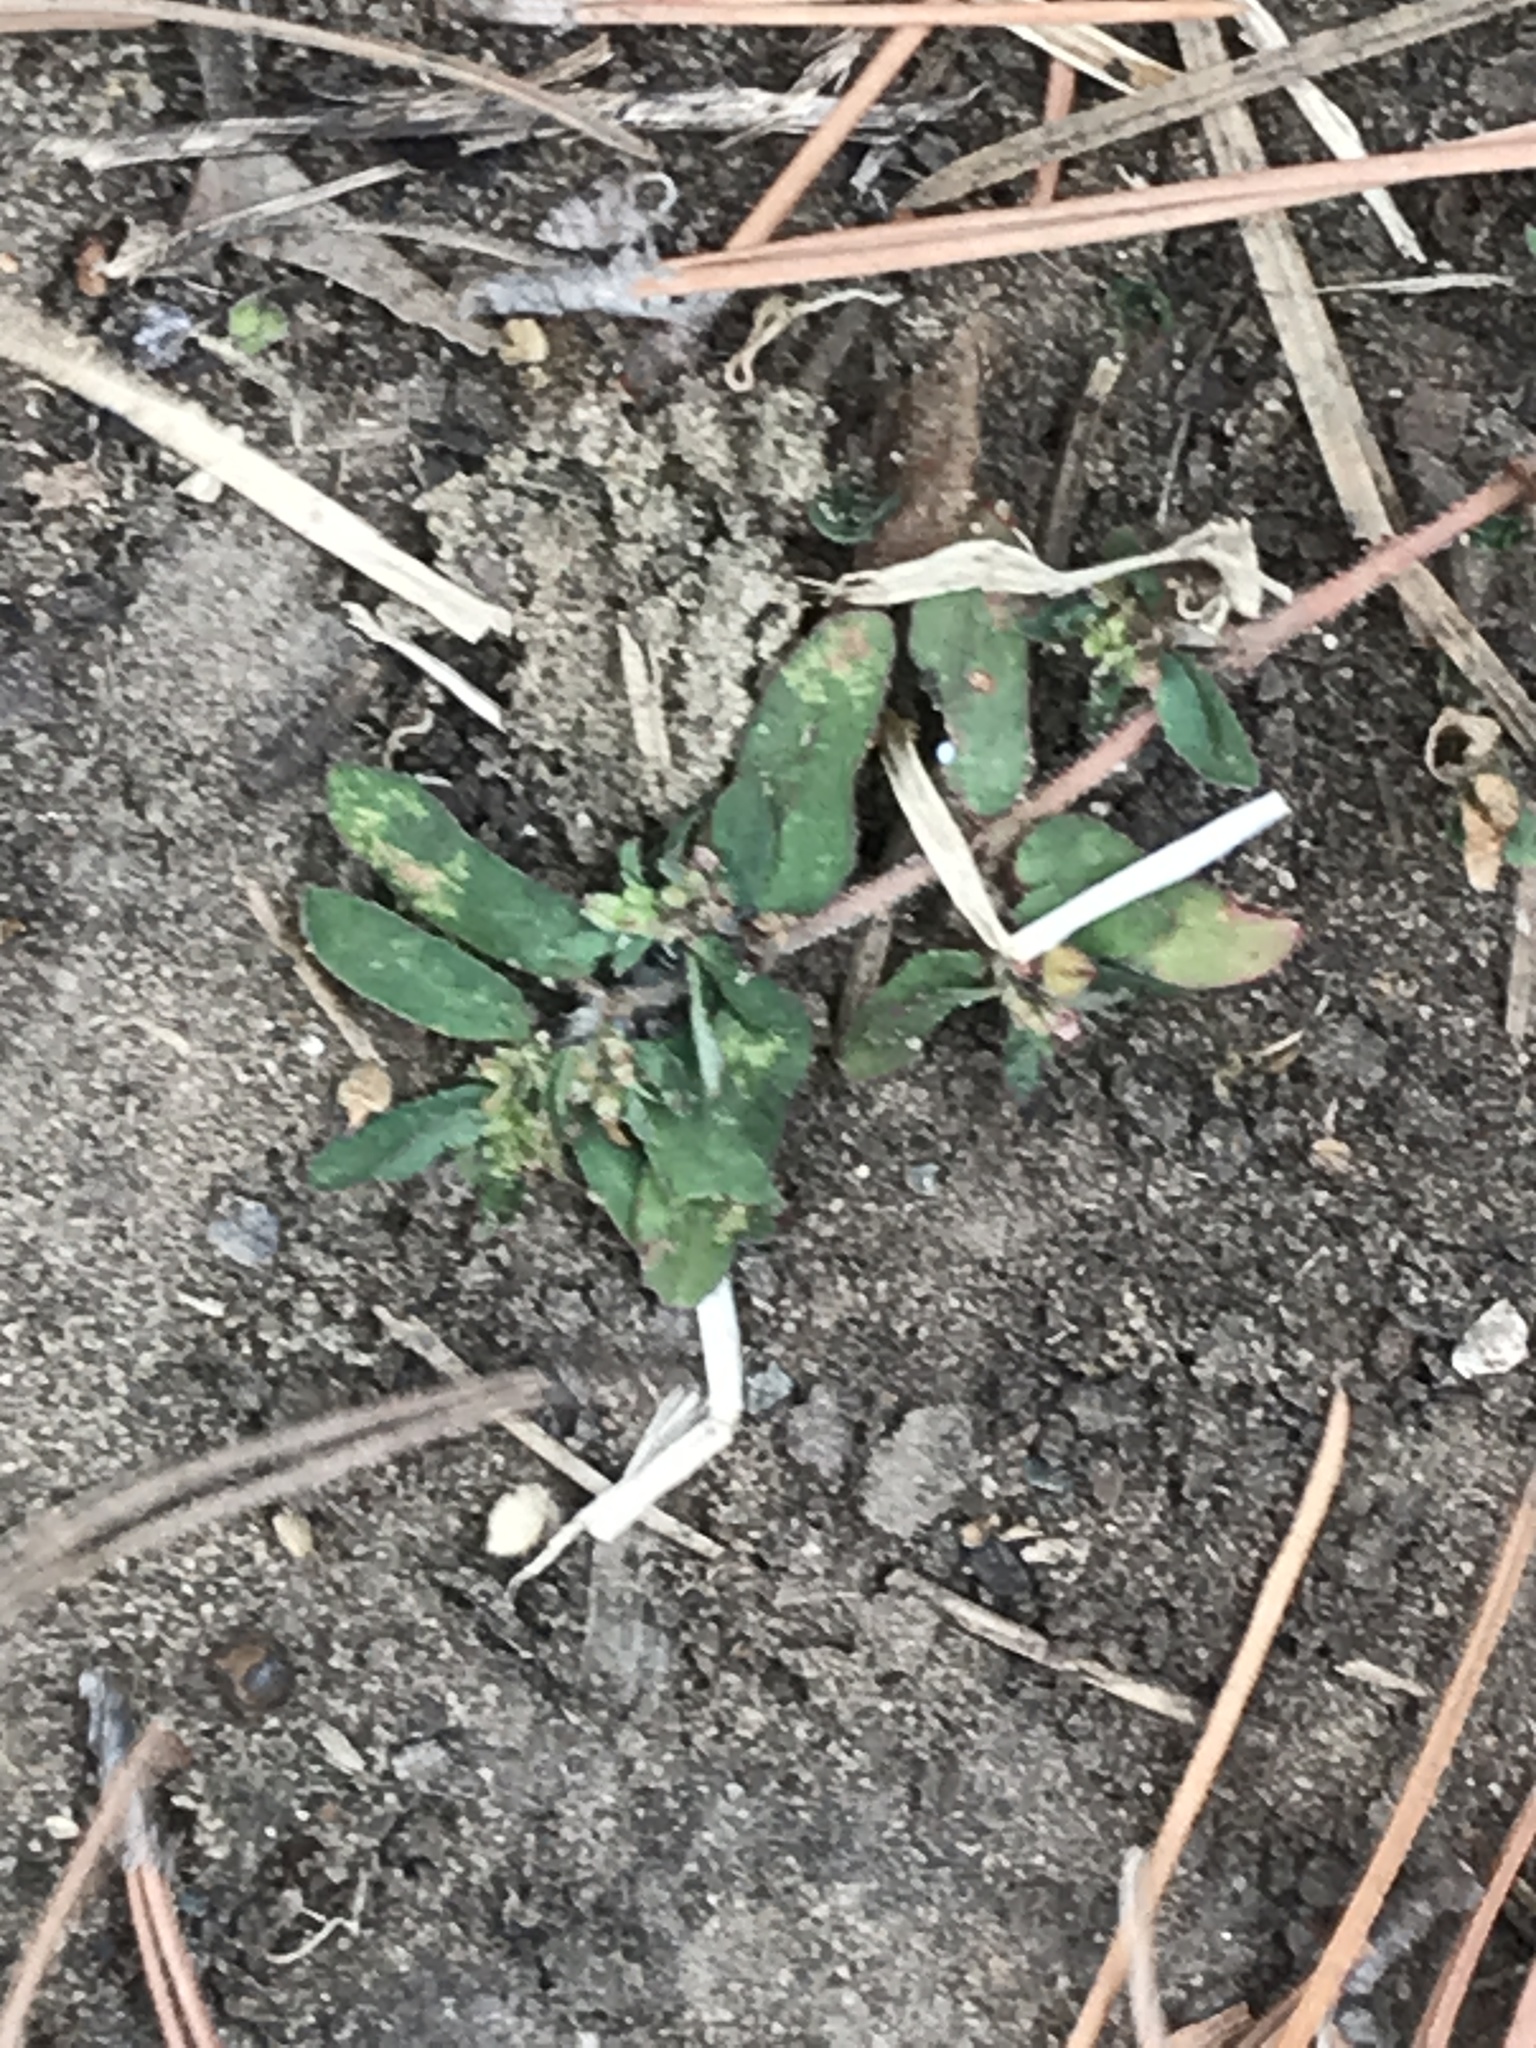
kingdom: Plantae
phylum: Tracheophyta
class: Magnoliopsida
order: Malpighiales
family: Euphorbiaceae
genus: Euphorbia
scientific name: Euphorbia maculata
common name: Spotted spurge
